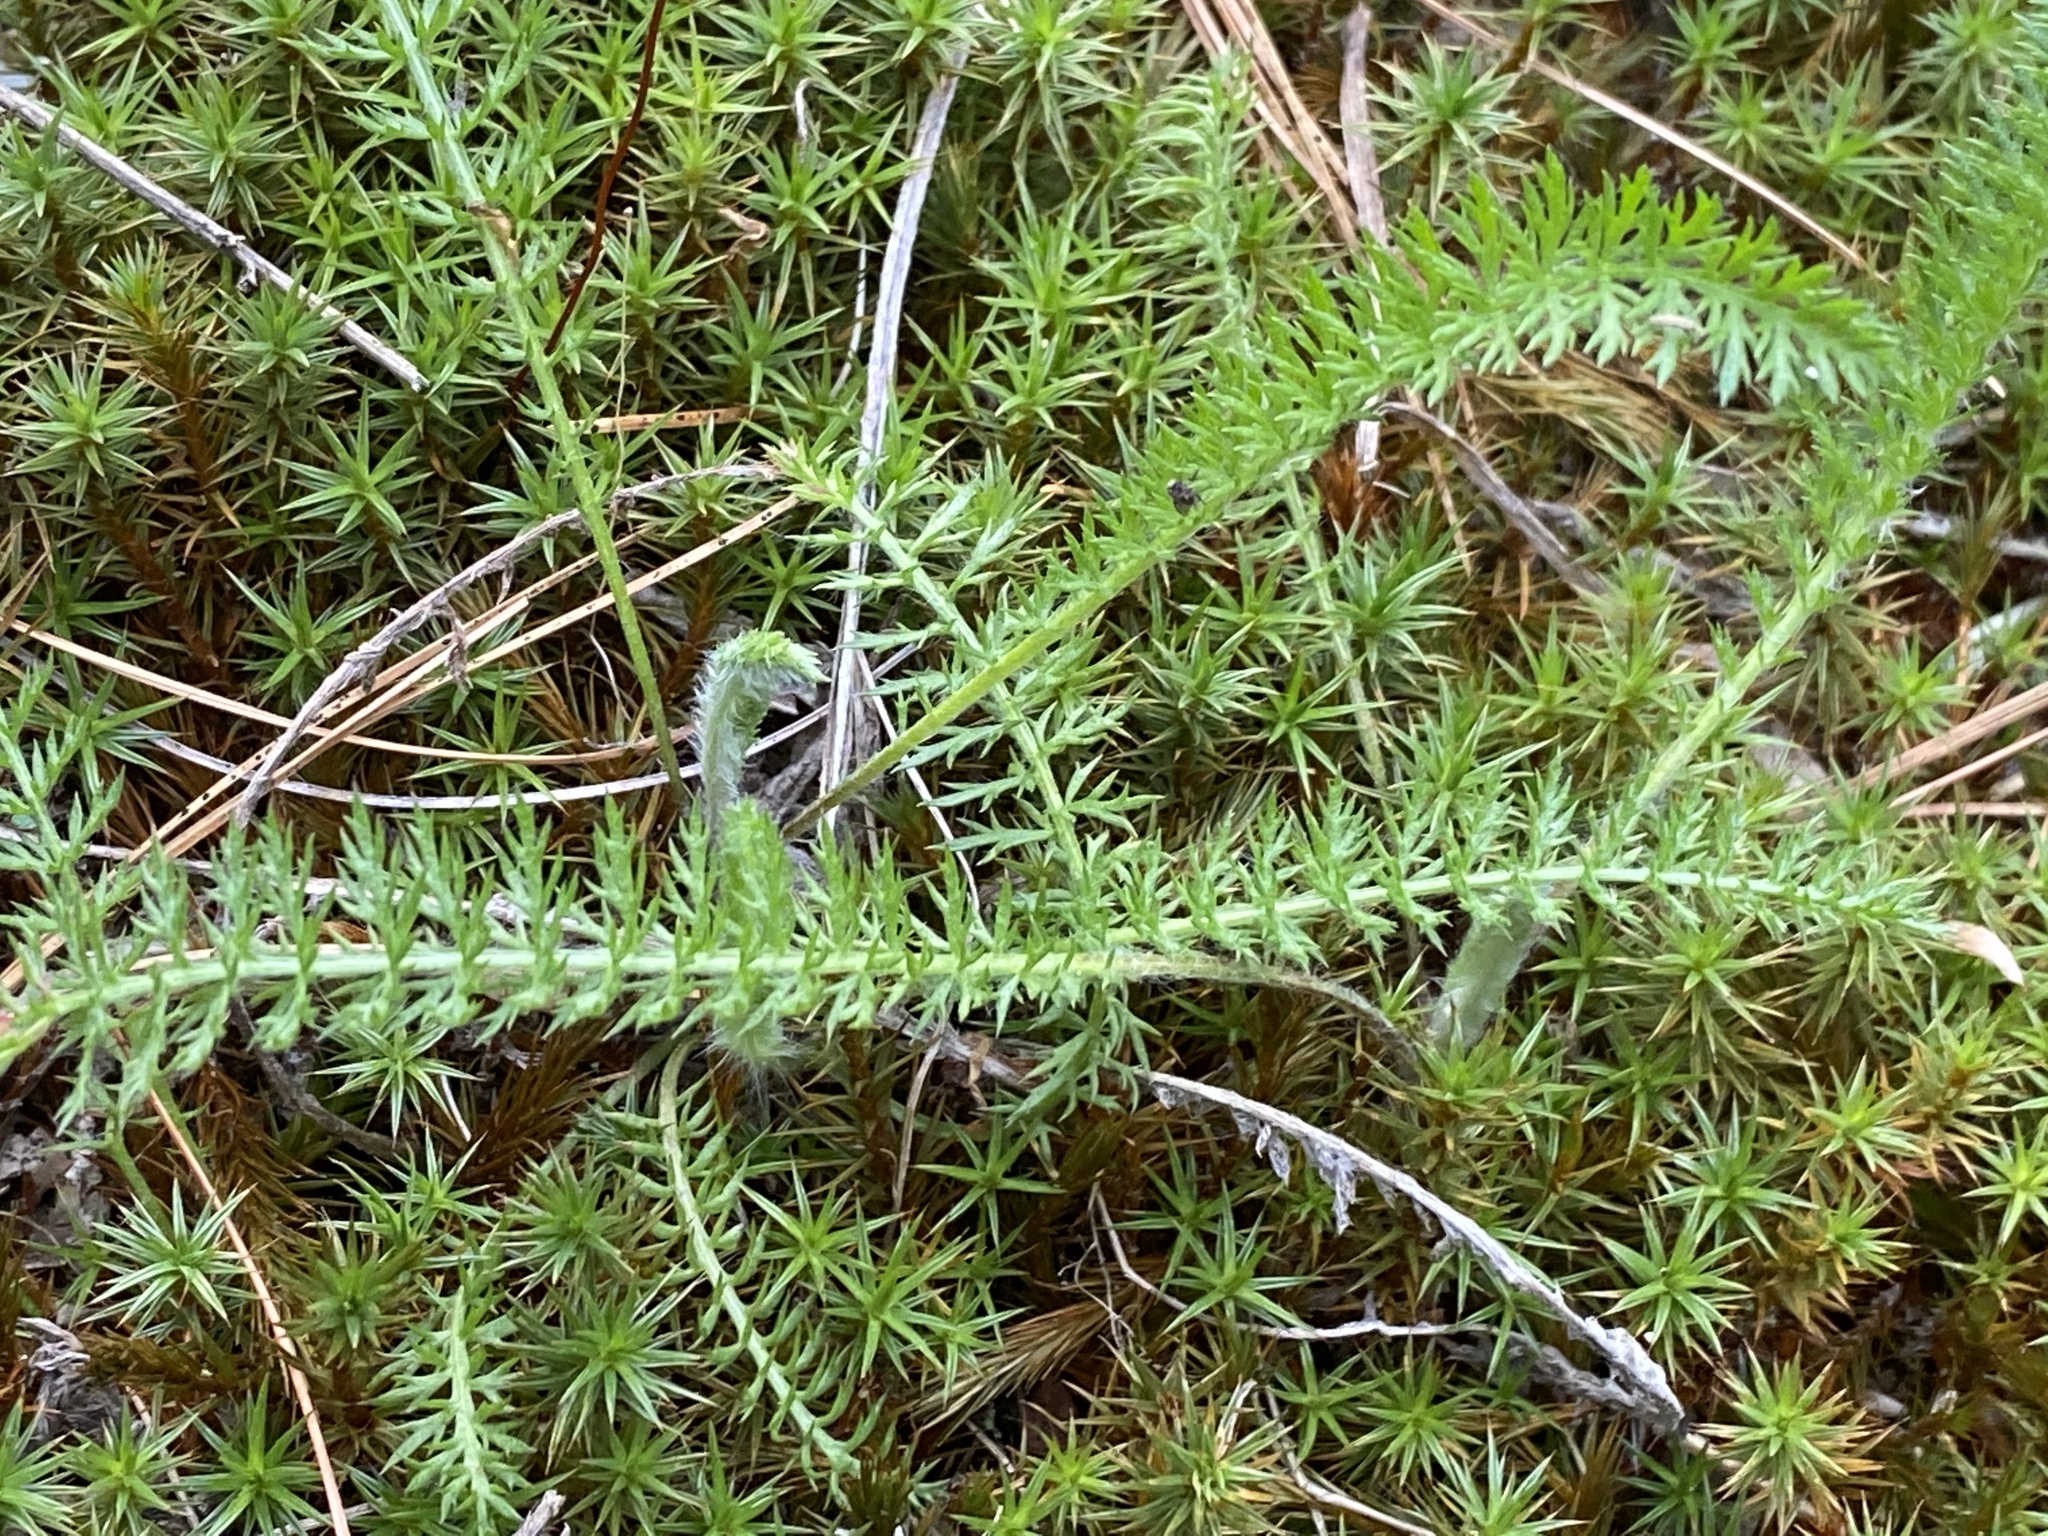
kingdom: Plantae
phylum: Tracheophyta
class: Lycopodiopsida
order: Lycopodiales
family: Lycopodiaceae
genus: Lycopodium
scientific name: Lycopodium clavatum
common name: Stag's-horn clubmoss
